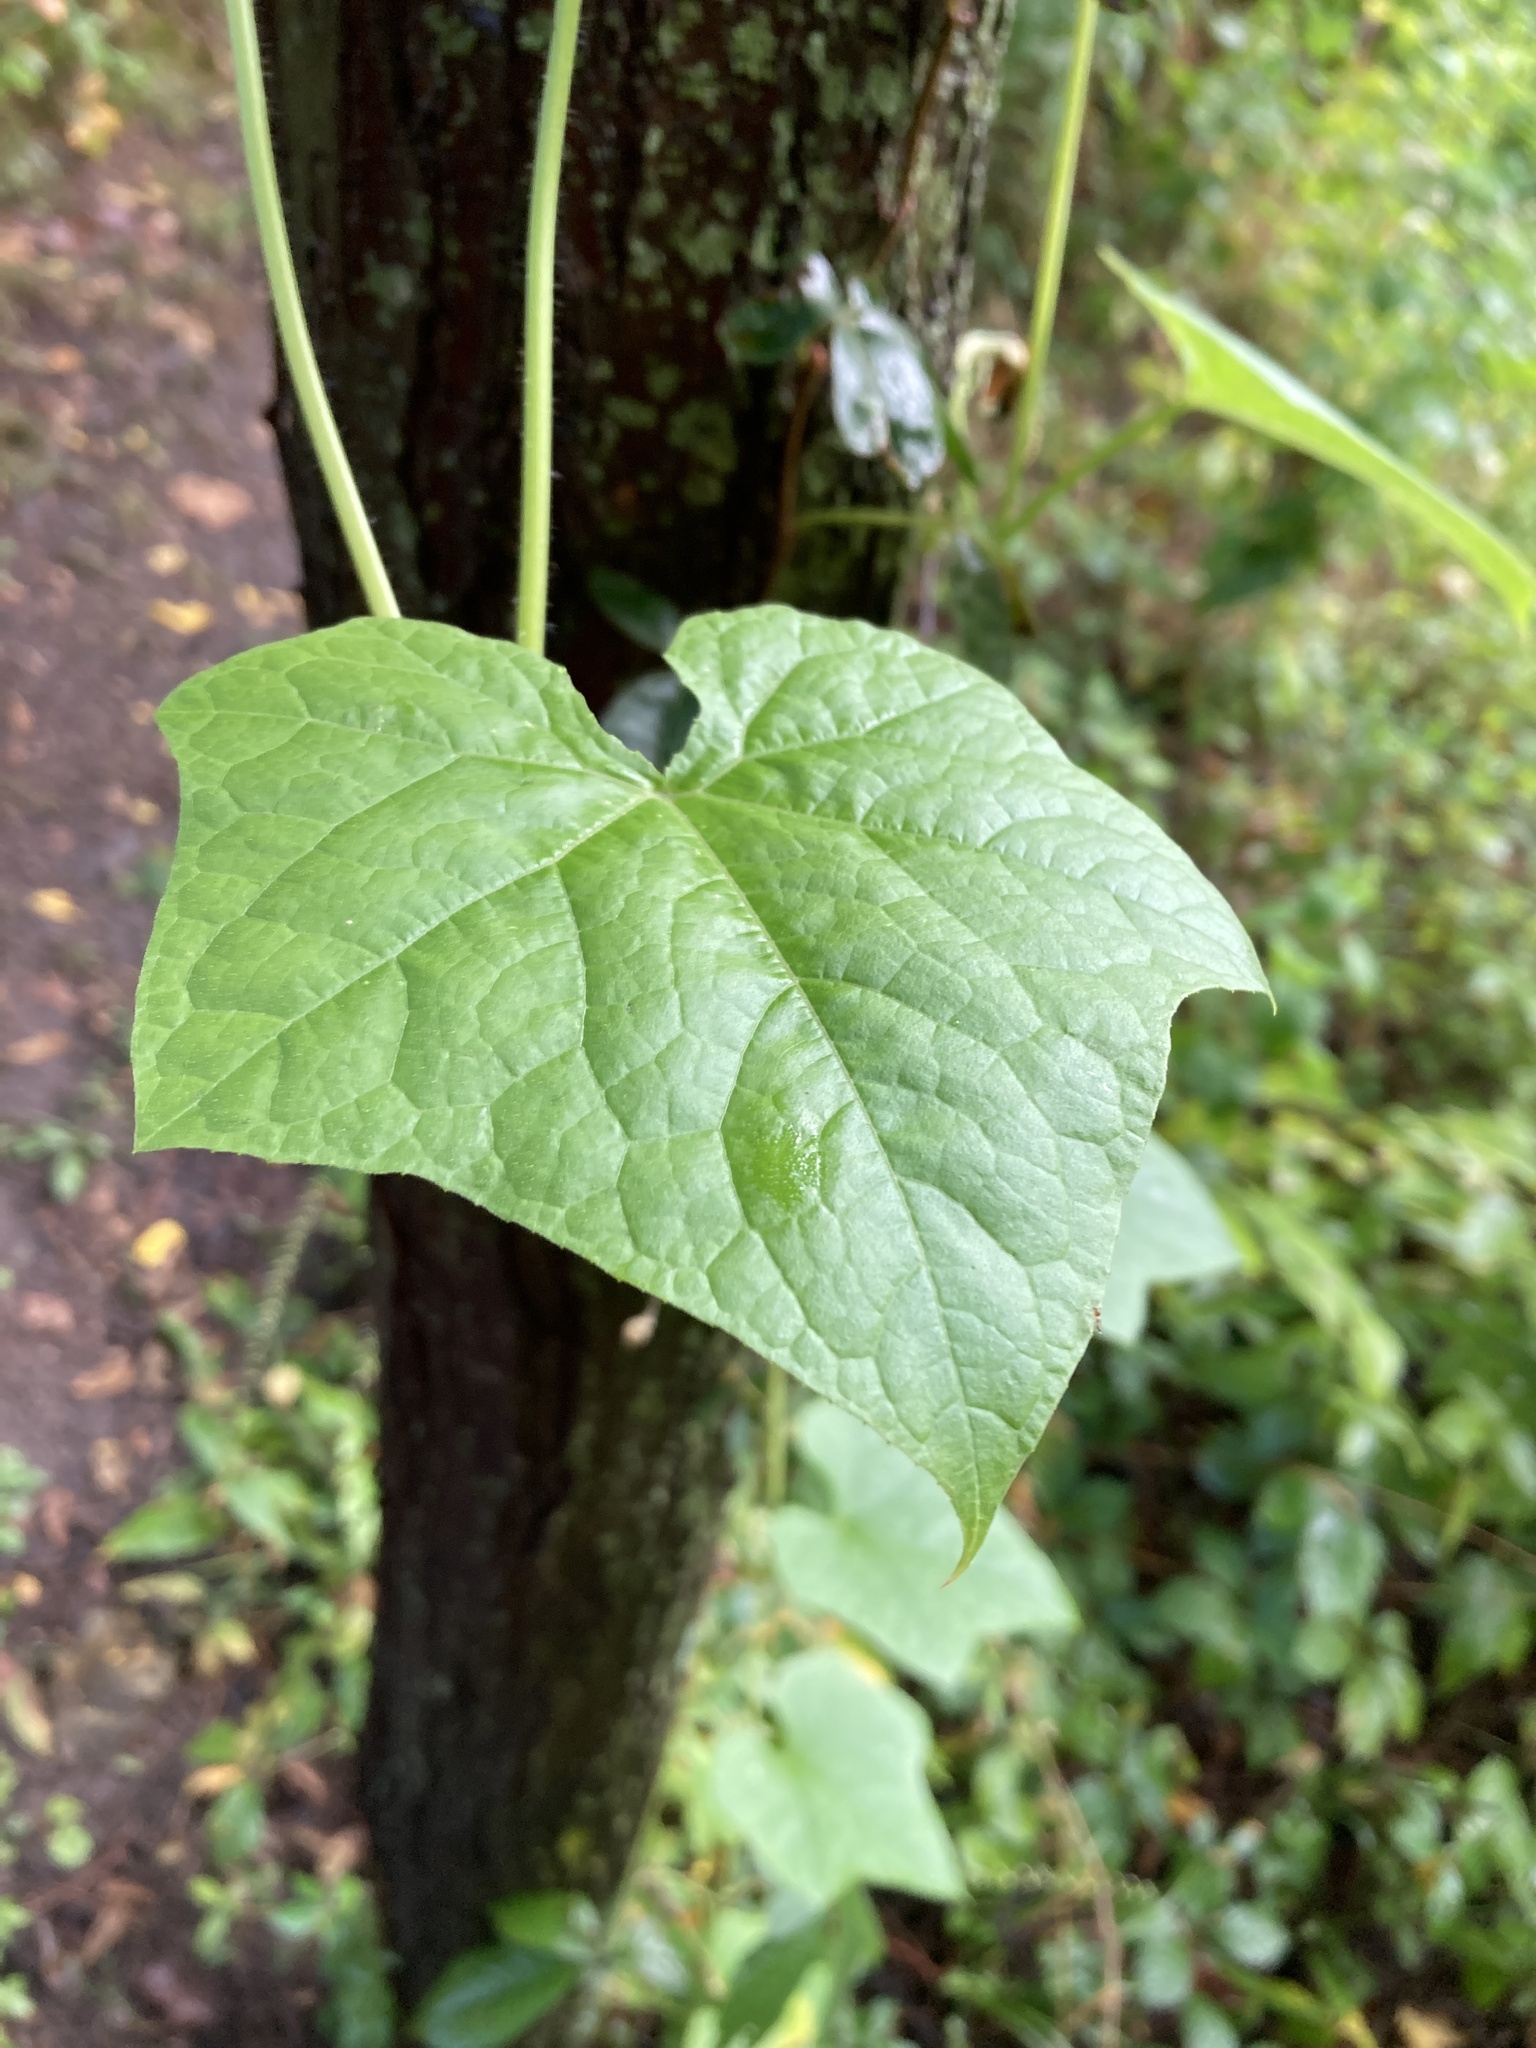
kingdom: Plantae
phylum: Tracheophyta
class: Magnoliopsida
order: Cucurbitales
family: Cucurbitaceae
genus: Sicyos
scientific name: Sicyos angulatus
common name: Angled burr cucumber
